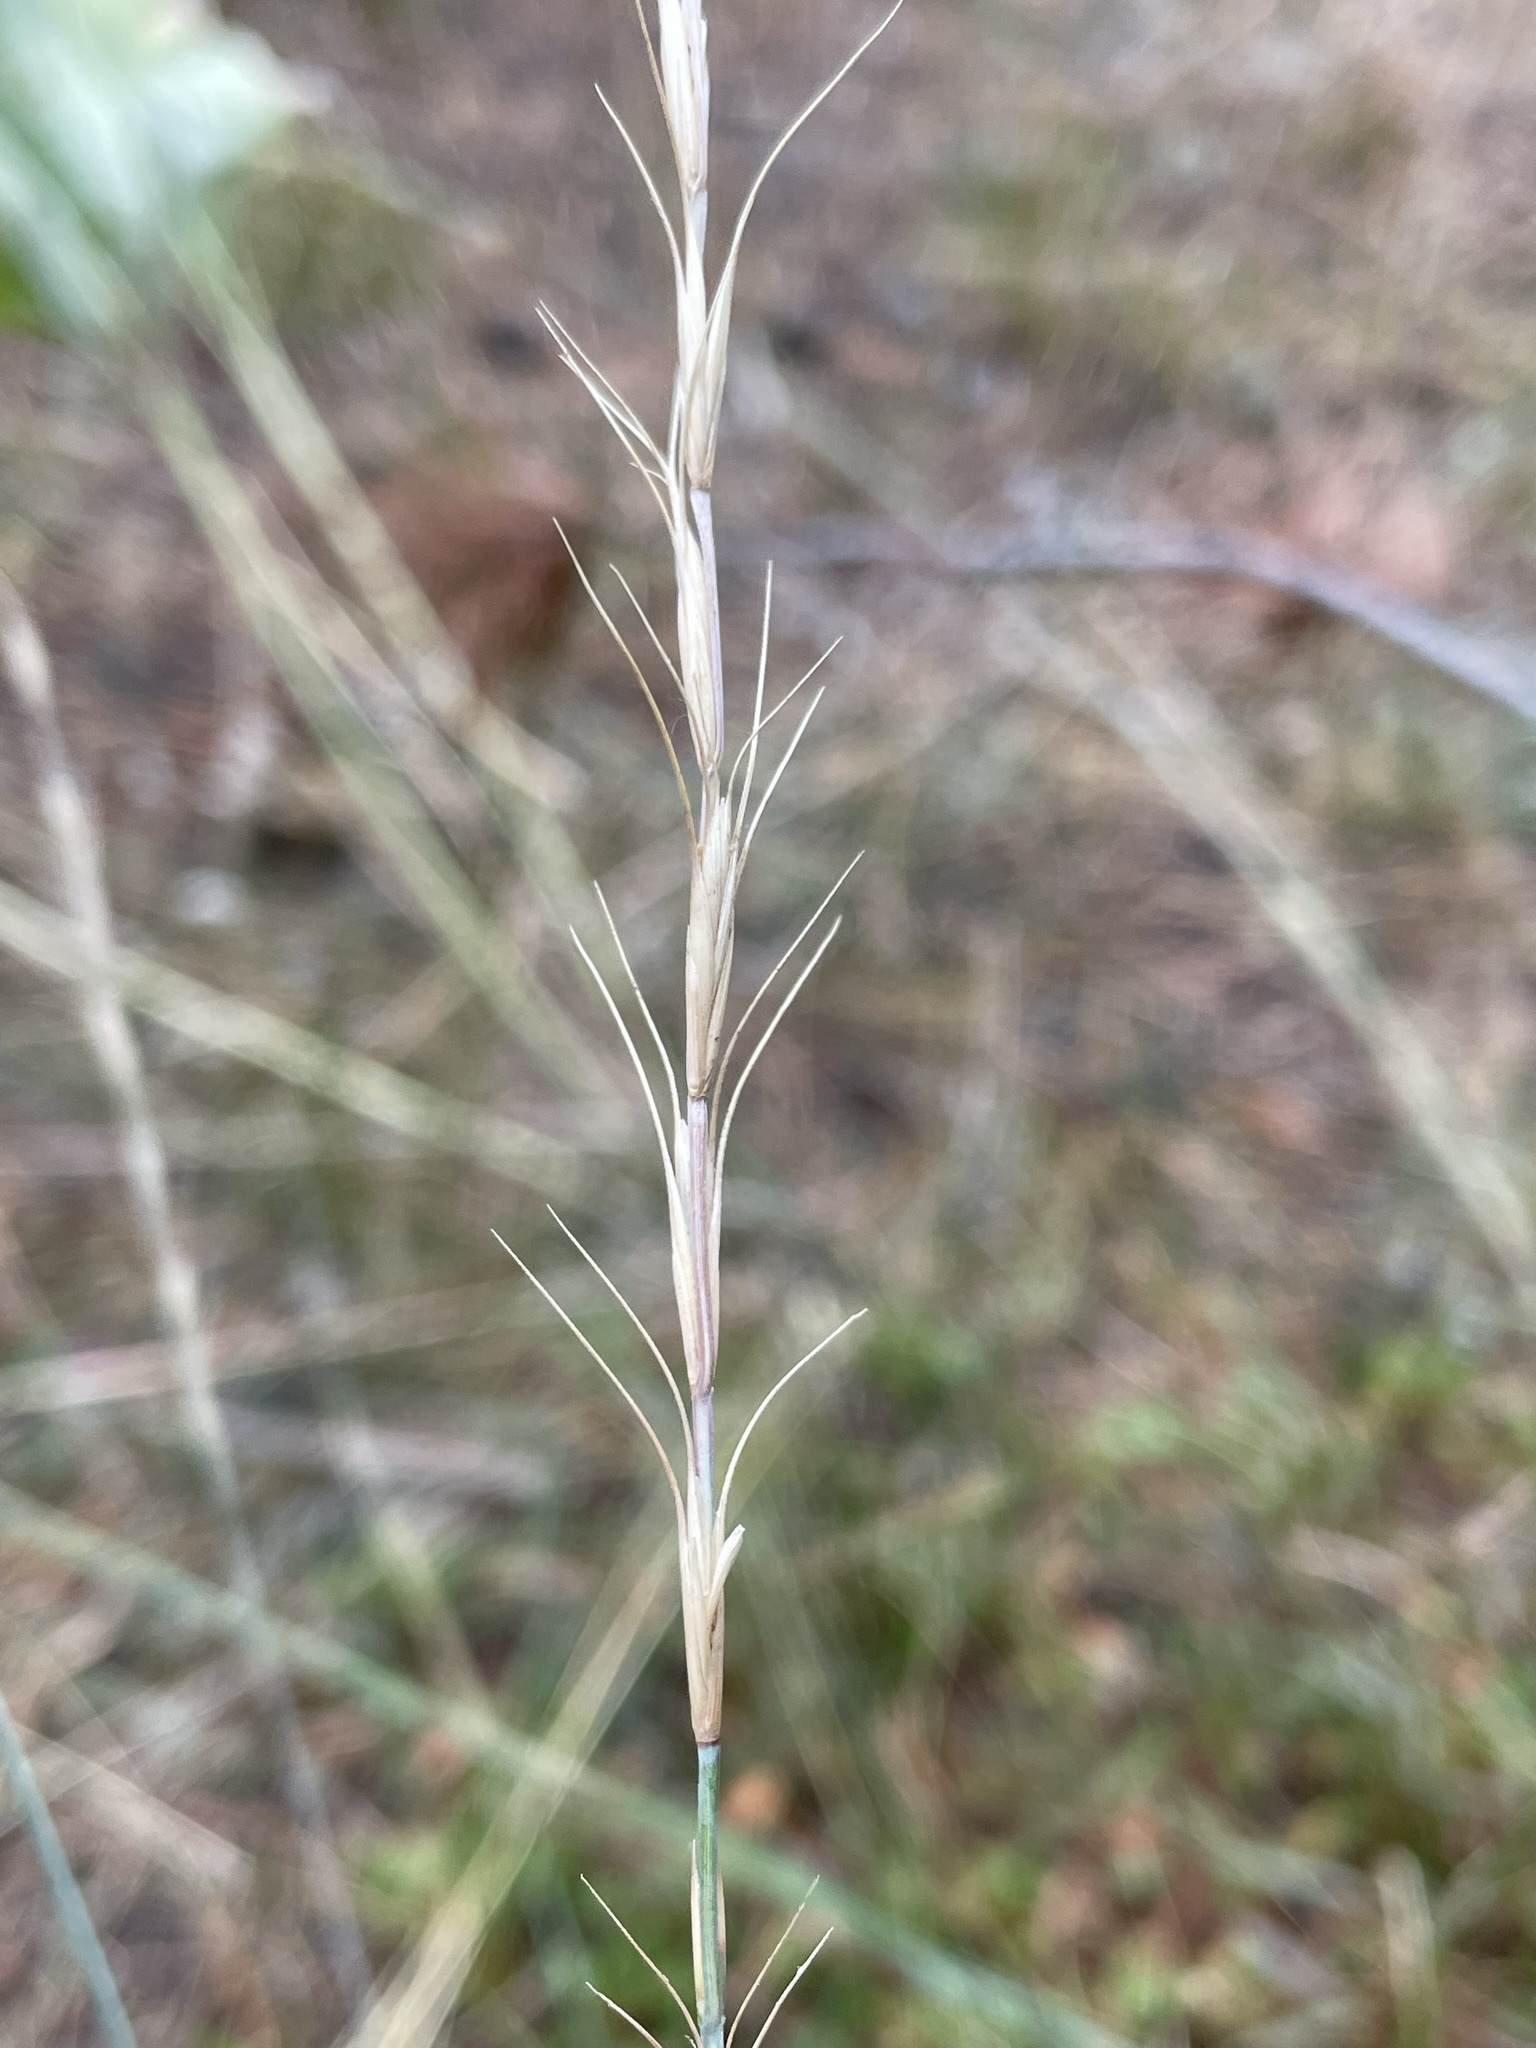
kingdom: Plantae
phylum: Tracheophyta
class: Liliopsida
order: Poales
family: Poaceae
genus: Pseudoroegneria
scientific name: Pseudoroegneria spicata
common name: Bluebunch wheatgrass
